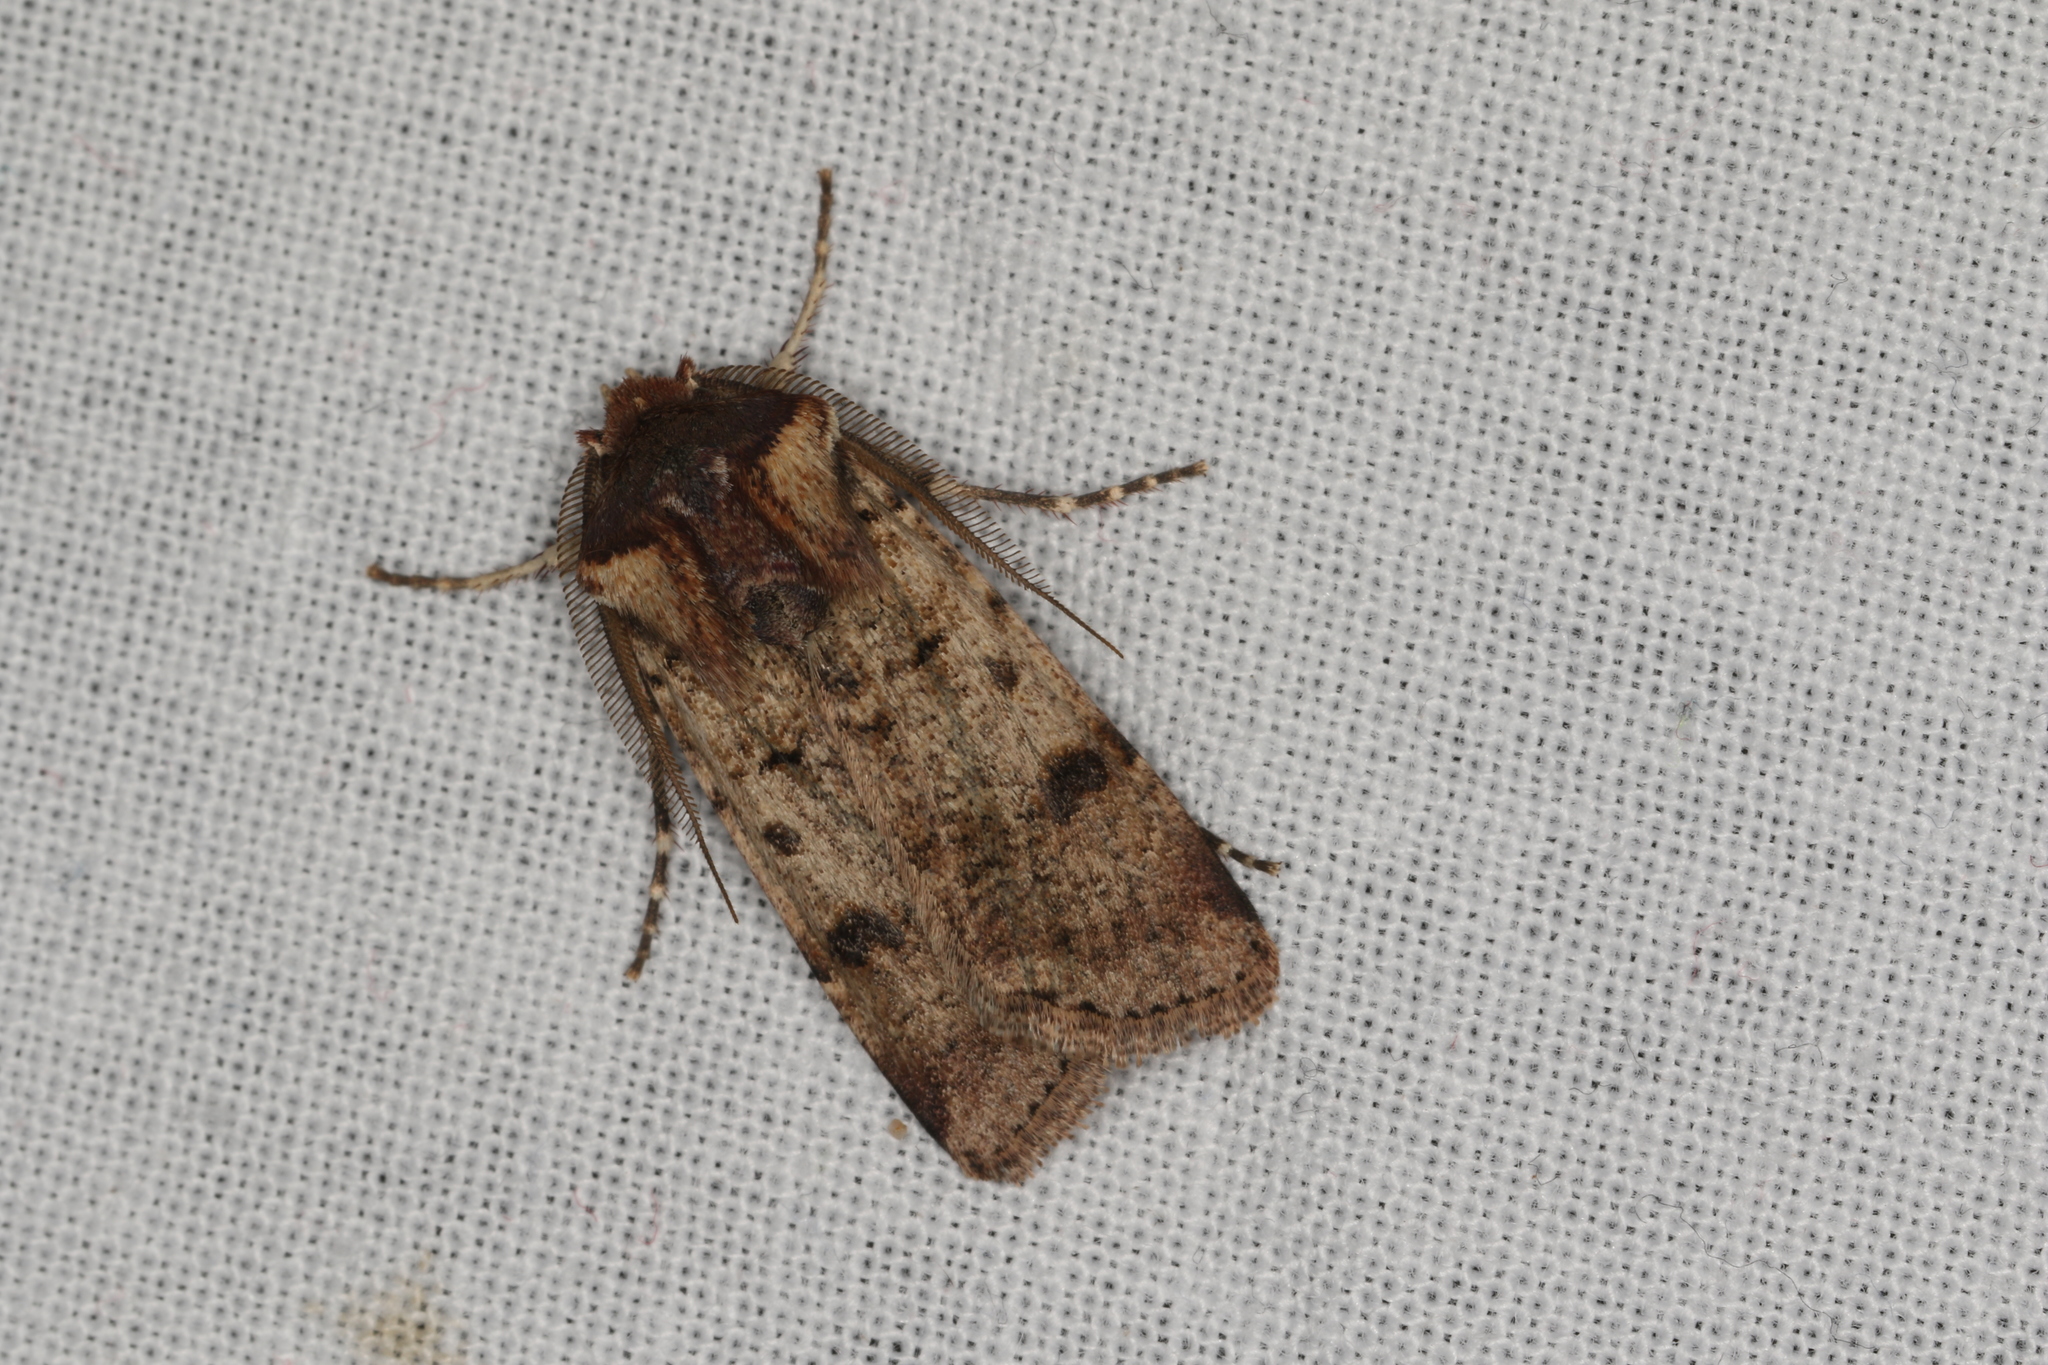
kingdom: Animalia
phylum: Arthropoda
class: Insecta
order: Lepidoptera
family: Noctuidae
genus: Agrotis
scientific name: Agrotis porphyricollis
